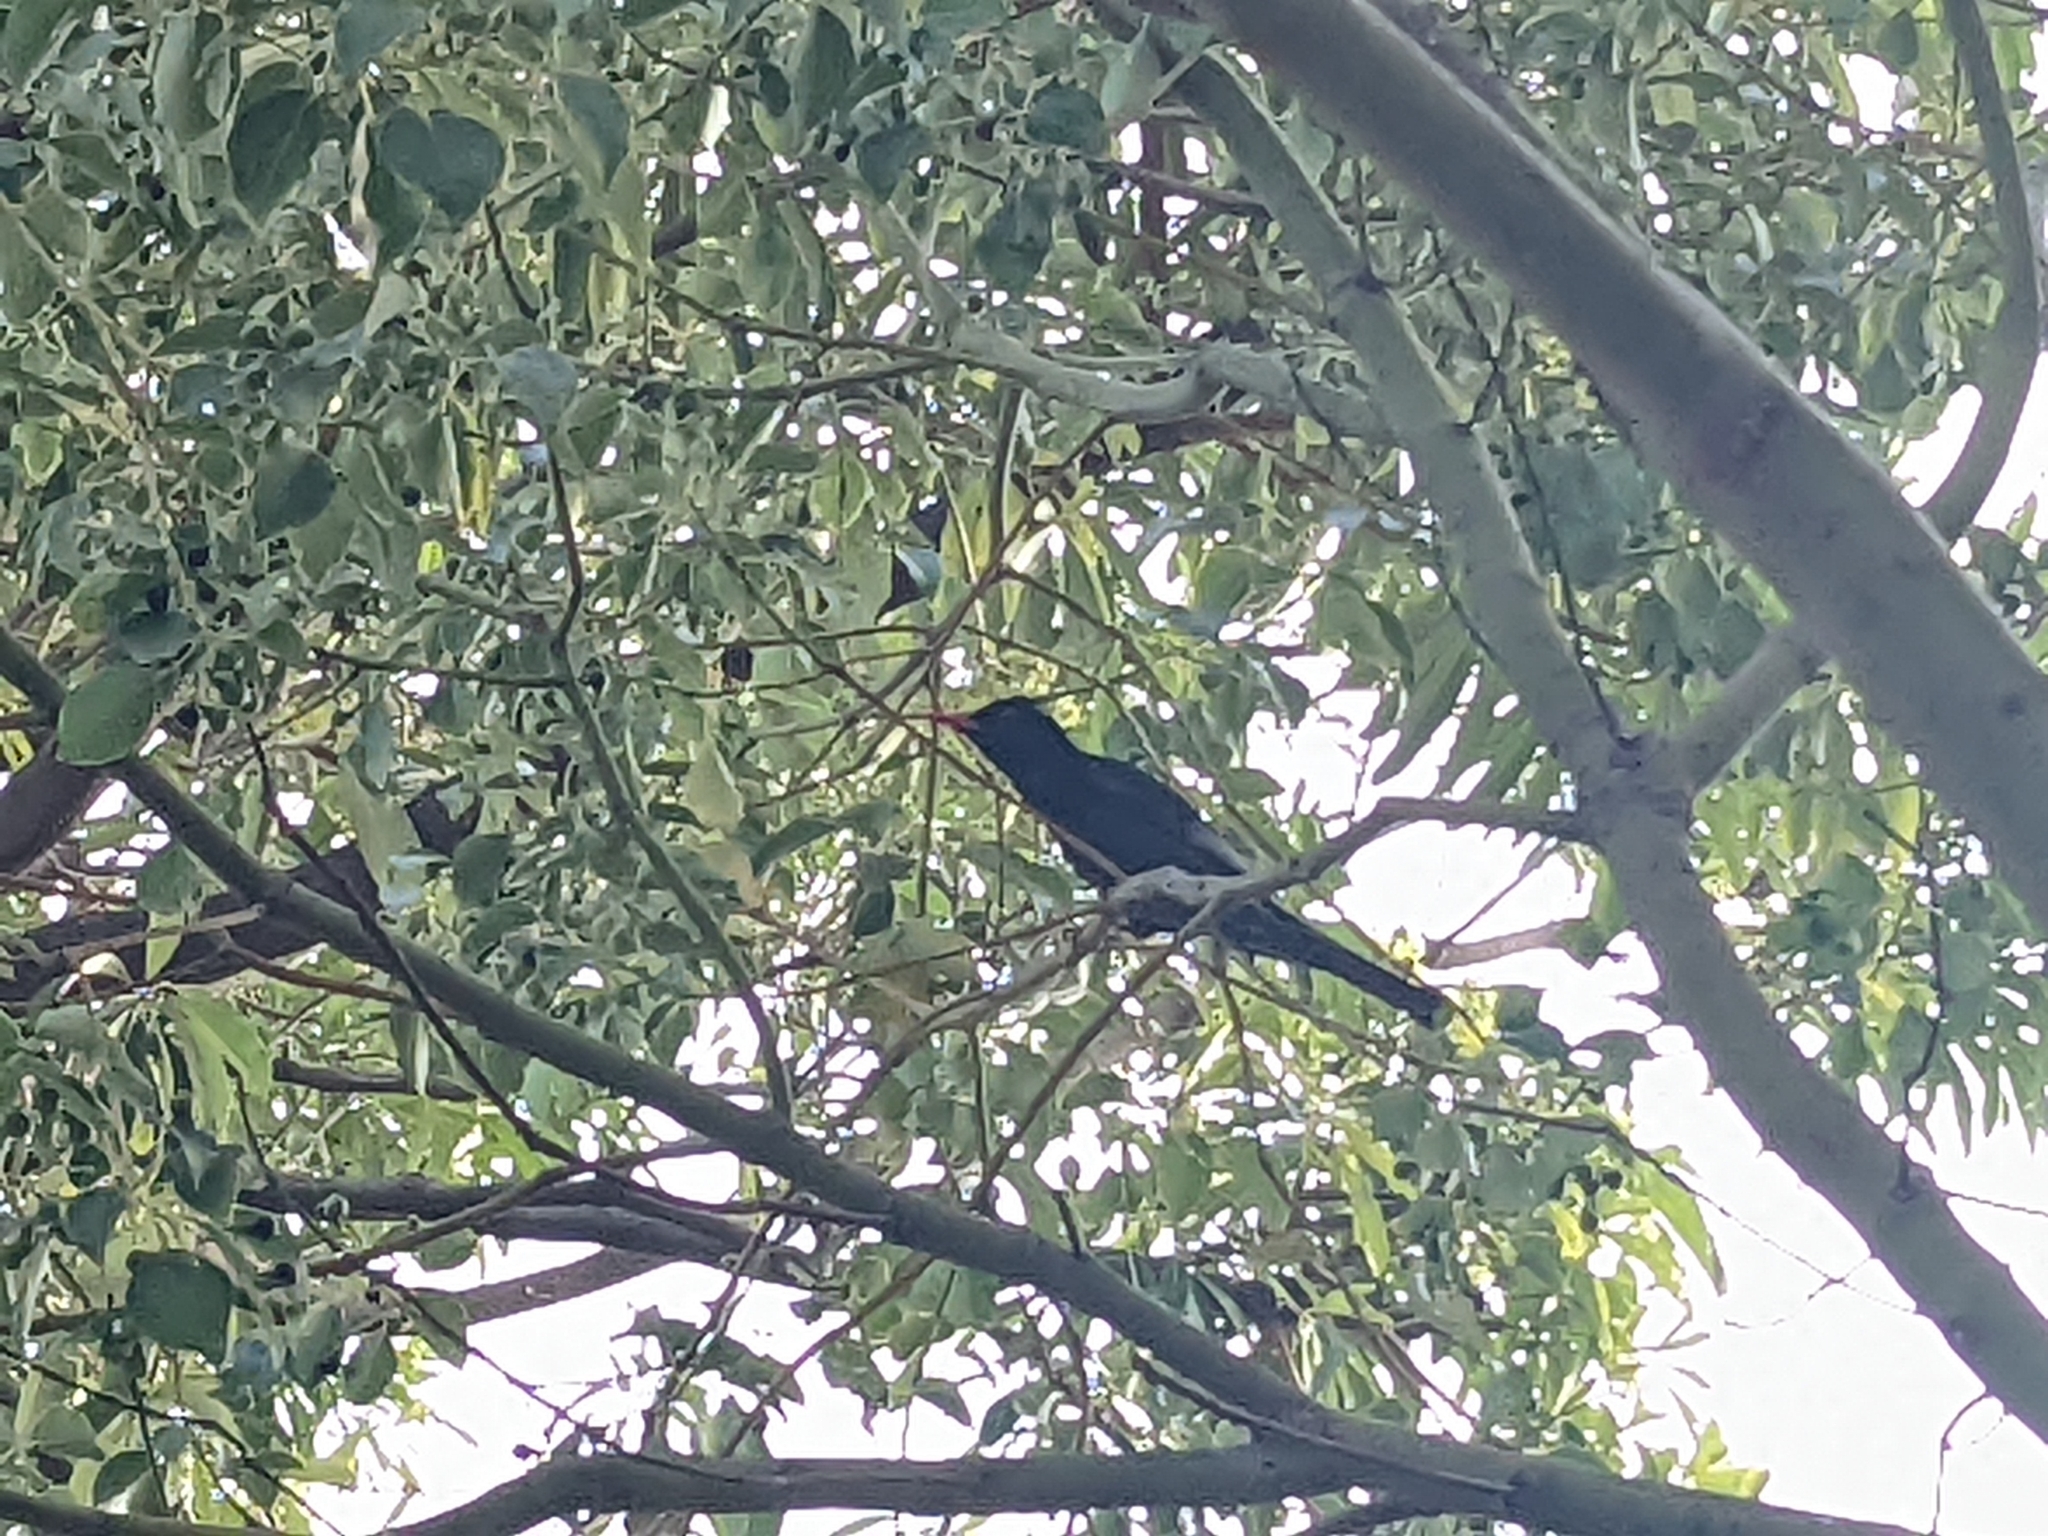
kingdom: Animalia
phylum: Chordata
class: Aves
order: Passeriformes
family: Pycnonotidae
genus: Hypsipetes
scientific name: Hypsipetes leucocephalus
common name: Black bulbul
